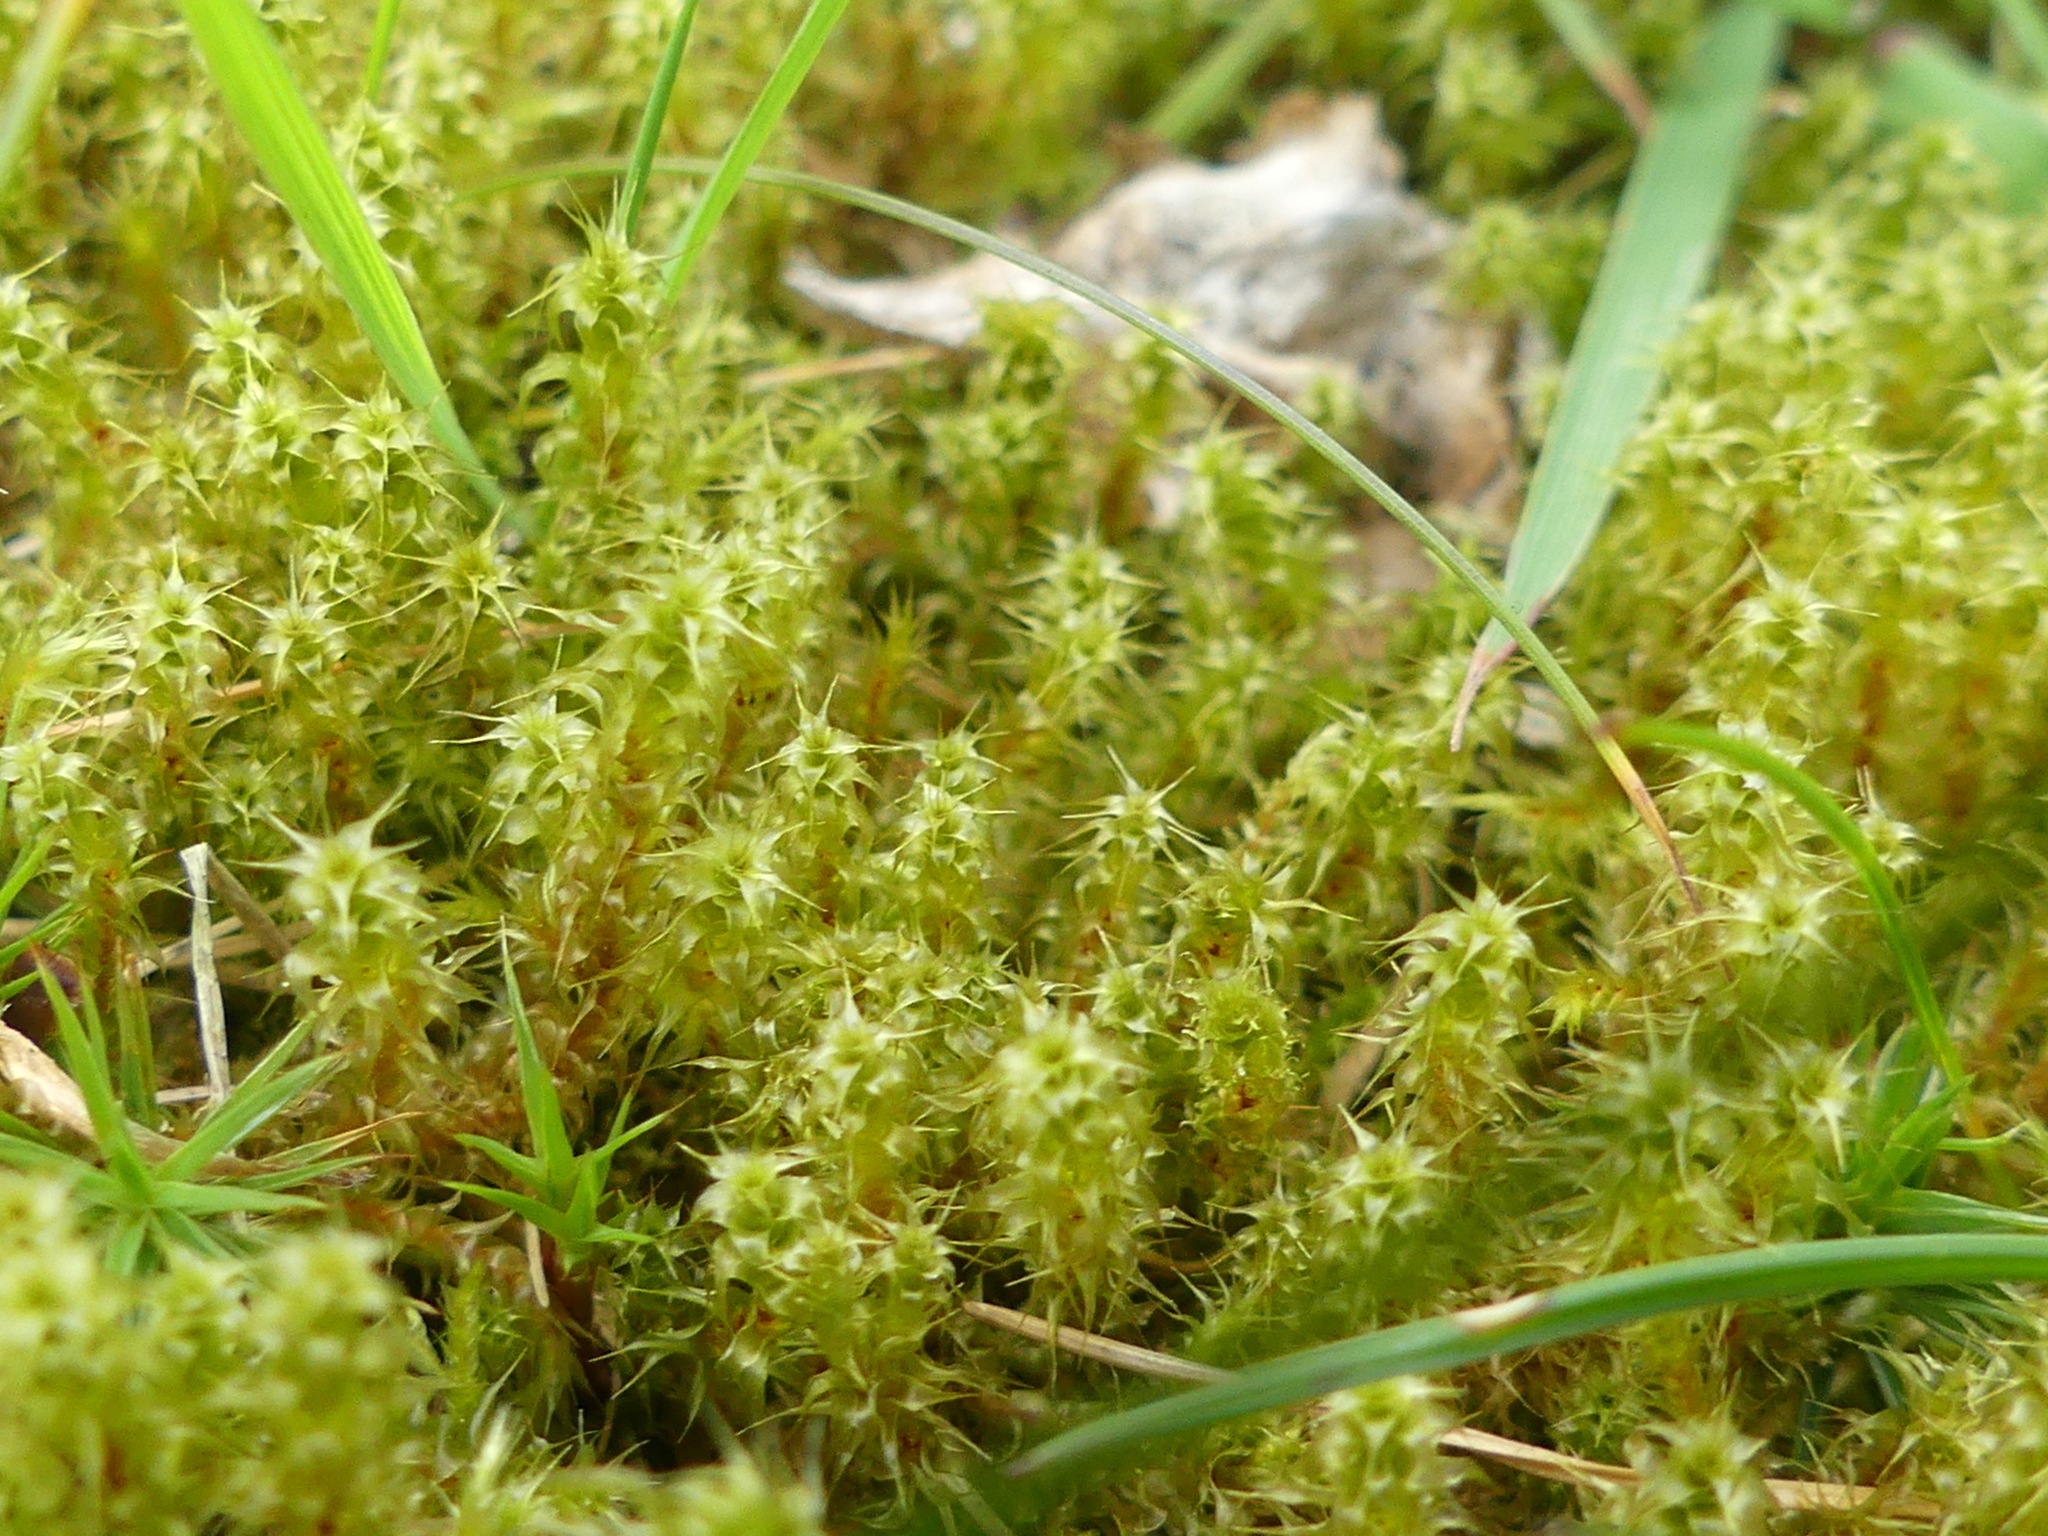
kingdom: Plantae
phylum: Bryophyta
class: Bryopsida
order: Hypnales
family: Hylocomiaceae
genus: Rhytidiadelphus
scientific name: Rhytidiadelphus squarrosus
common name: Springy turf-moss
